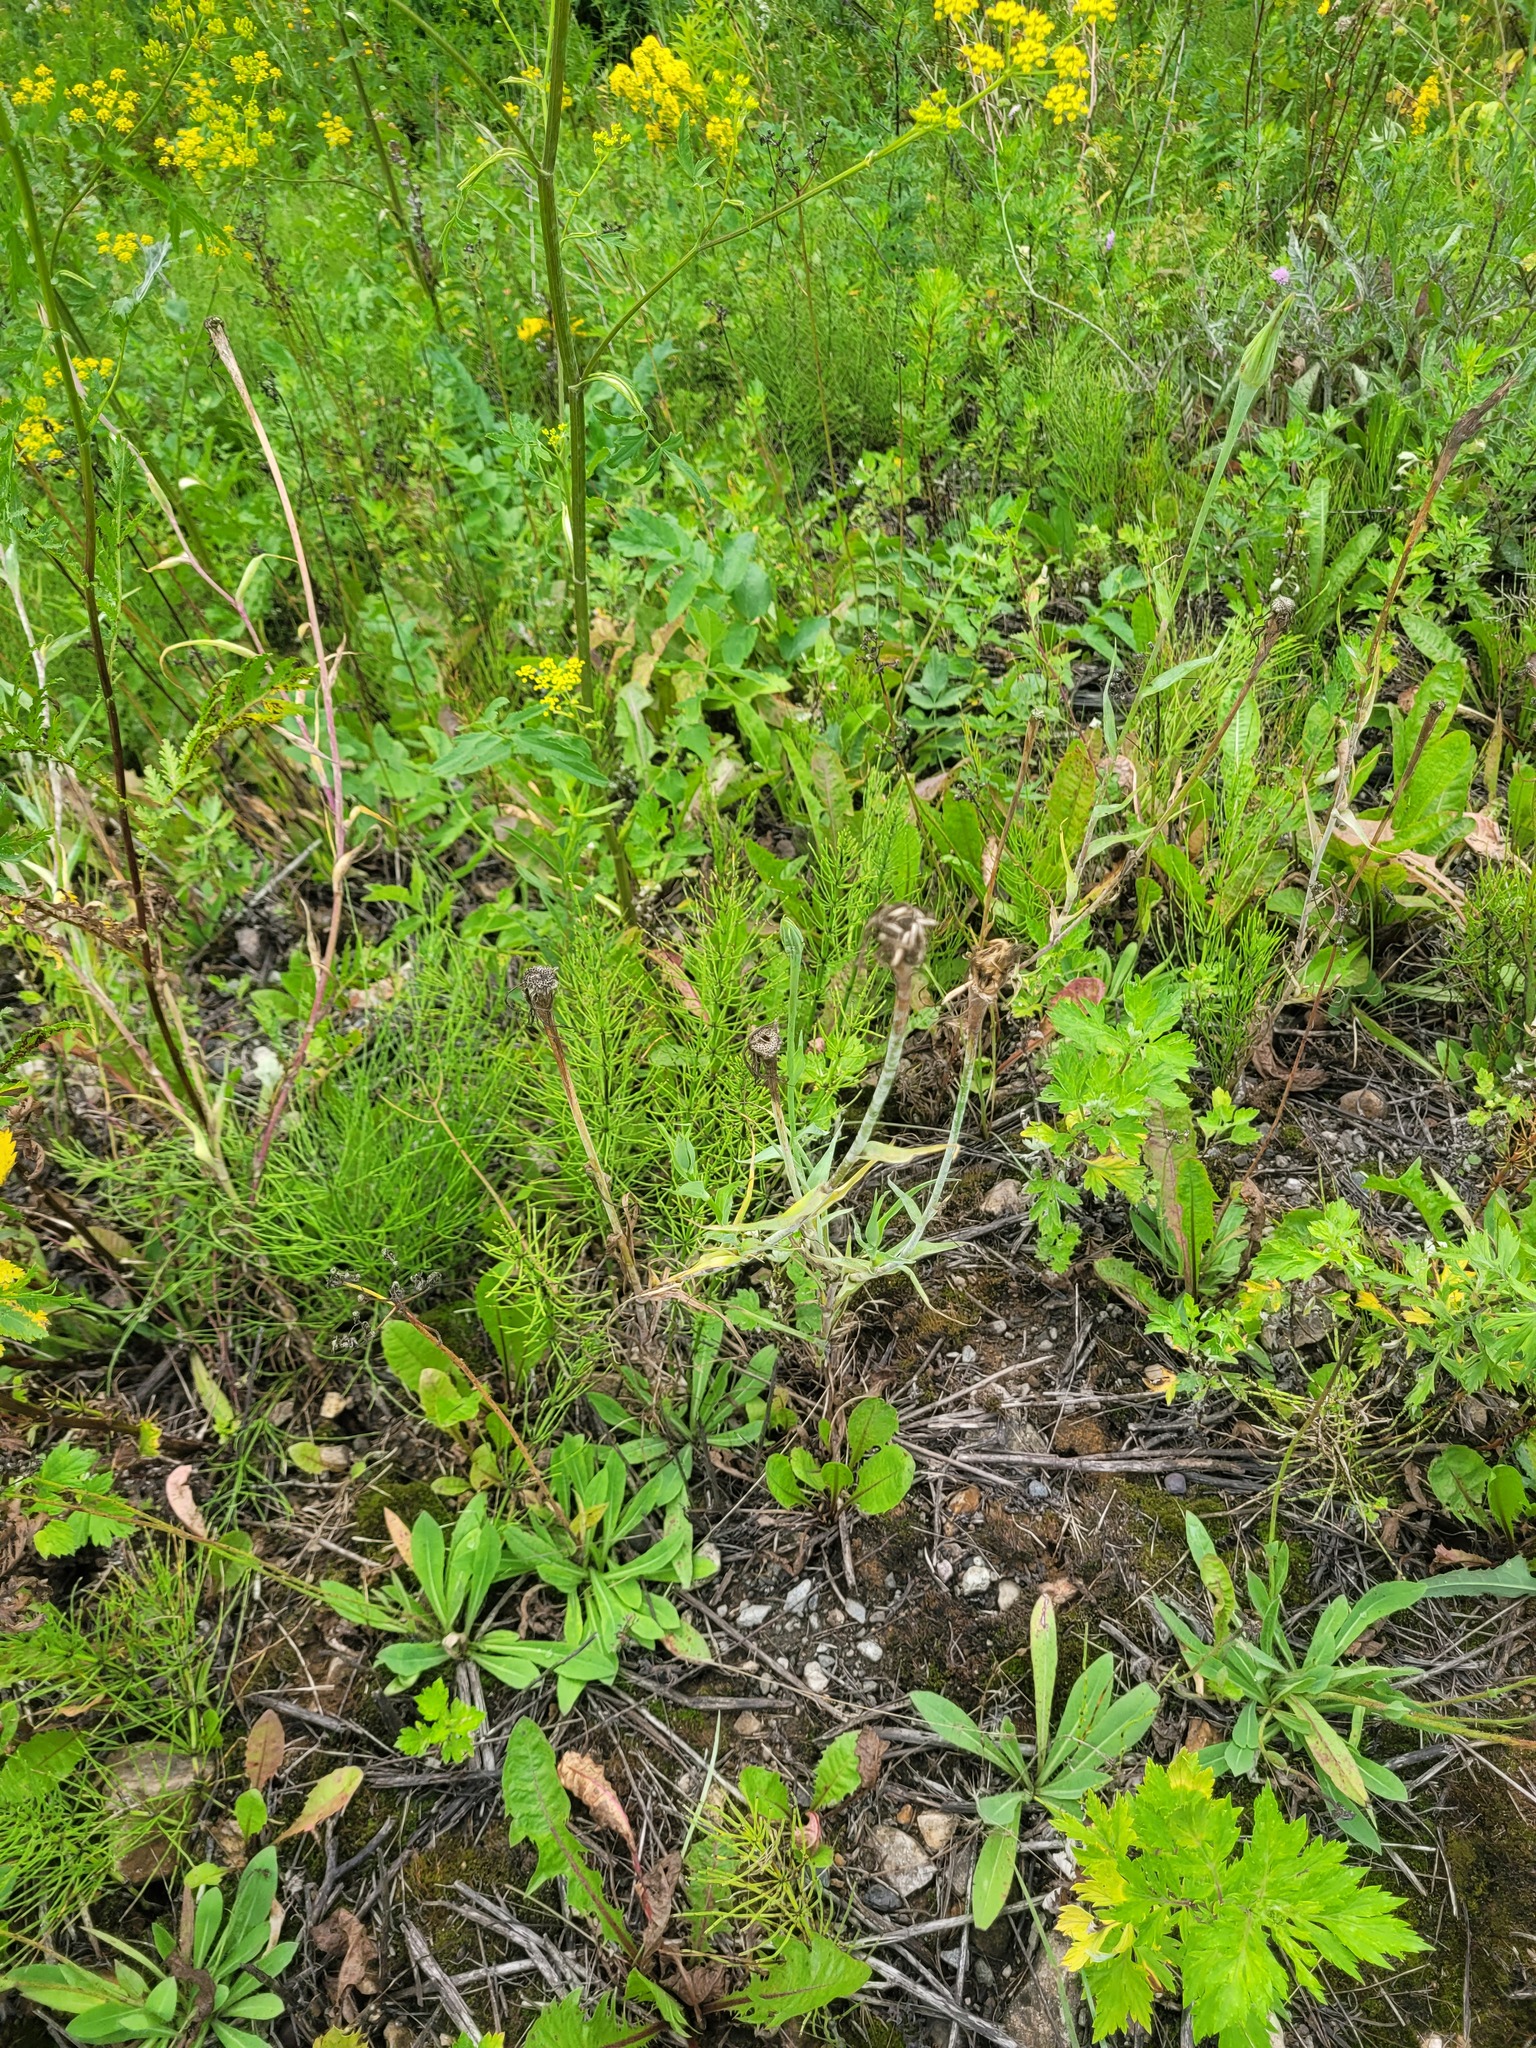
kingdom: Plantae
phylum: Tracheophyta
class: Magnoliopsida
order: Asterales
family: Asteraceae
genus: Tragopogon
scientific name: Tragopogon dubius
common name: Yellow salsify
